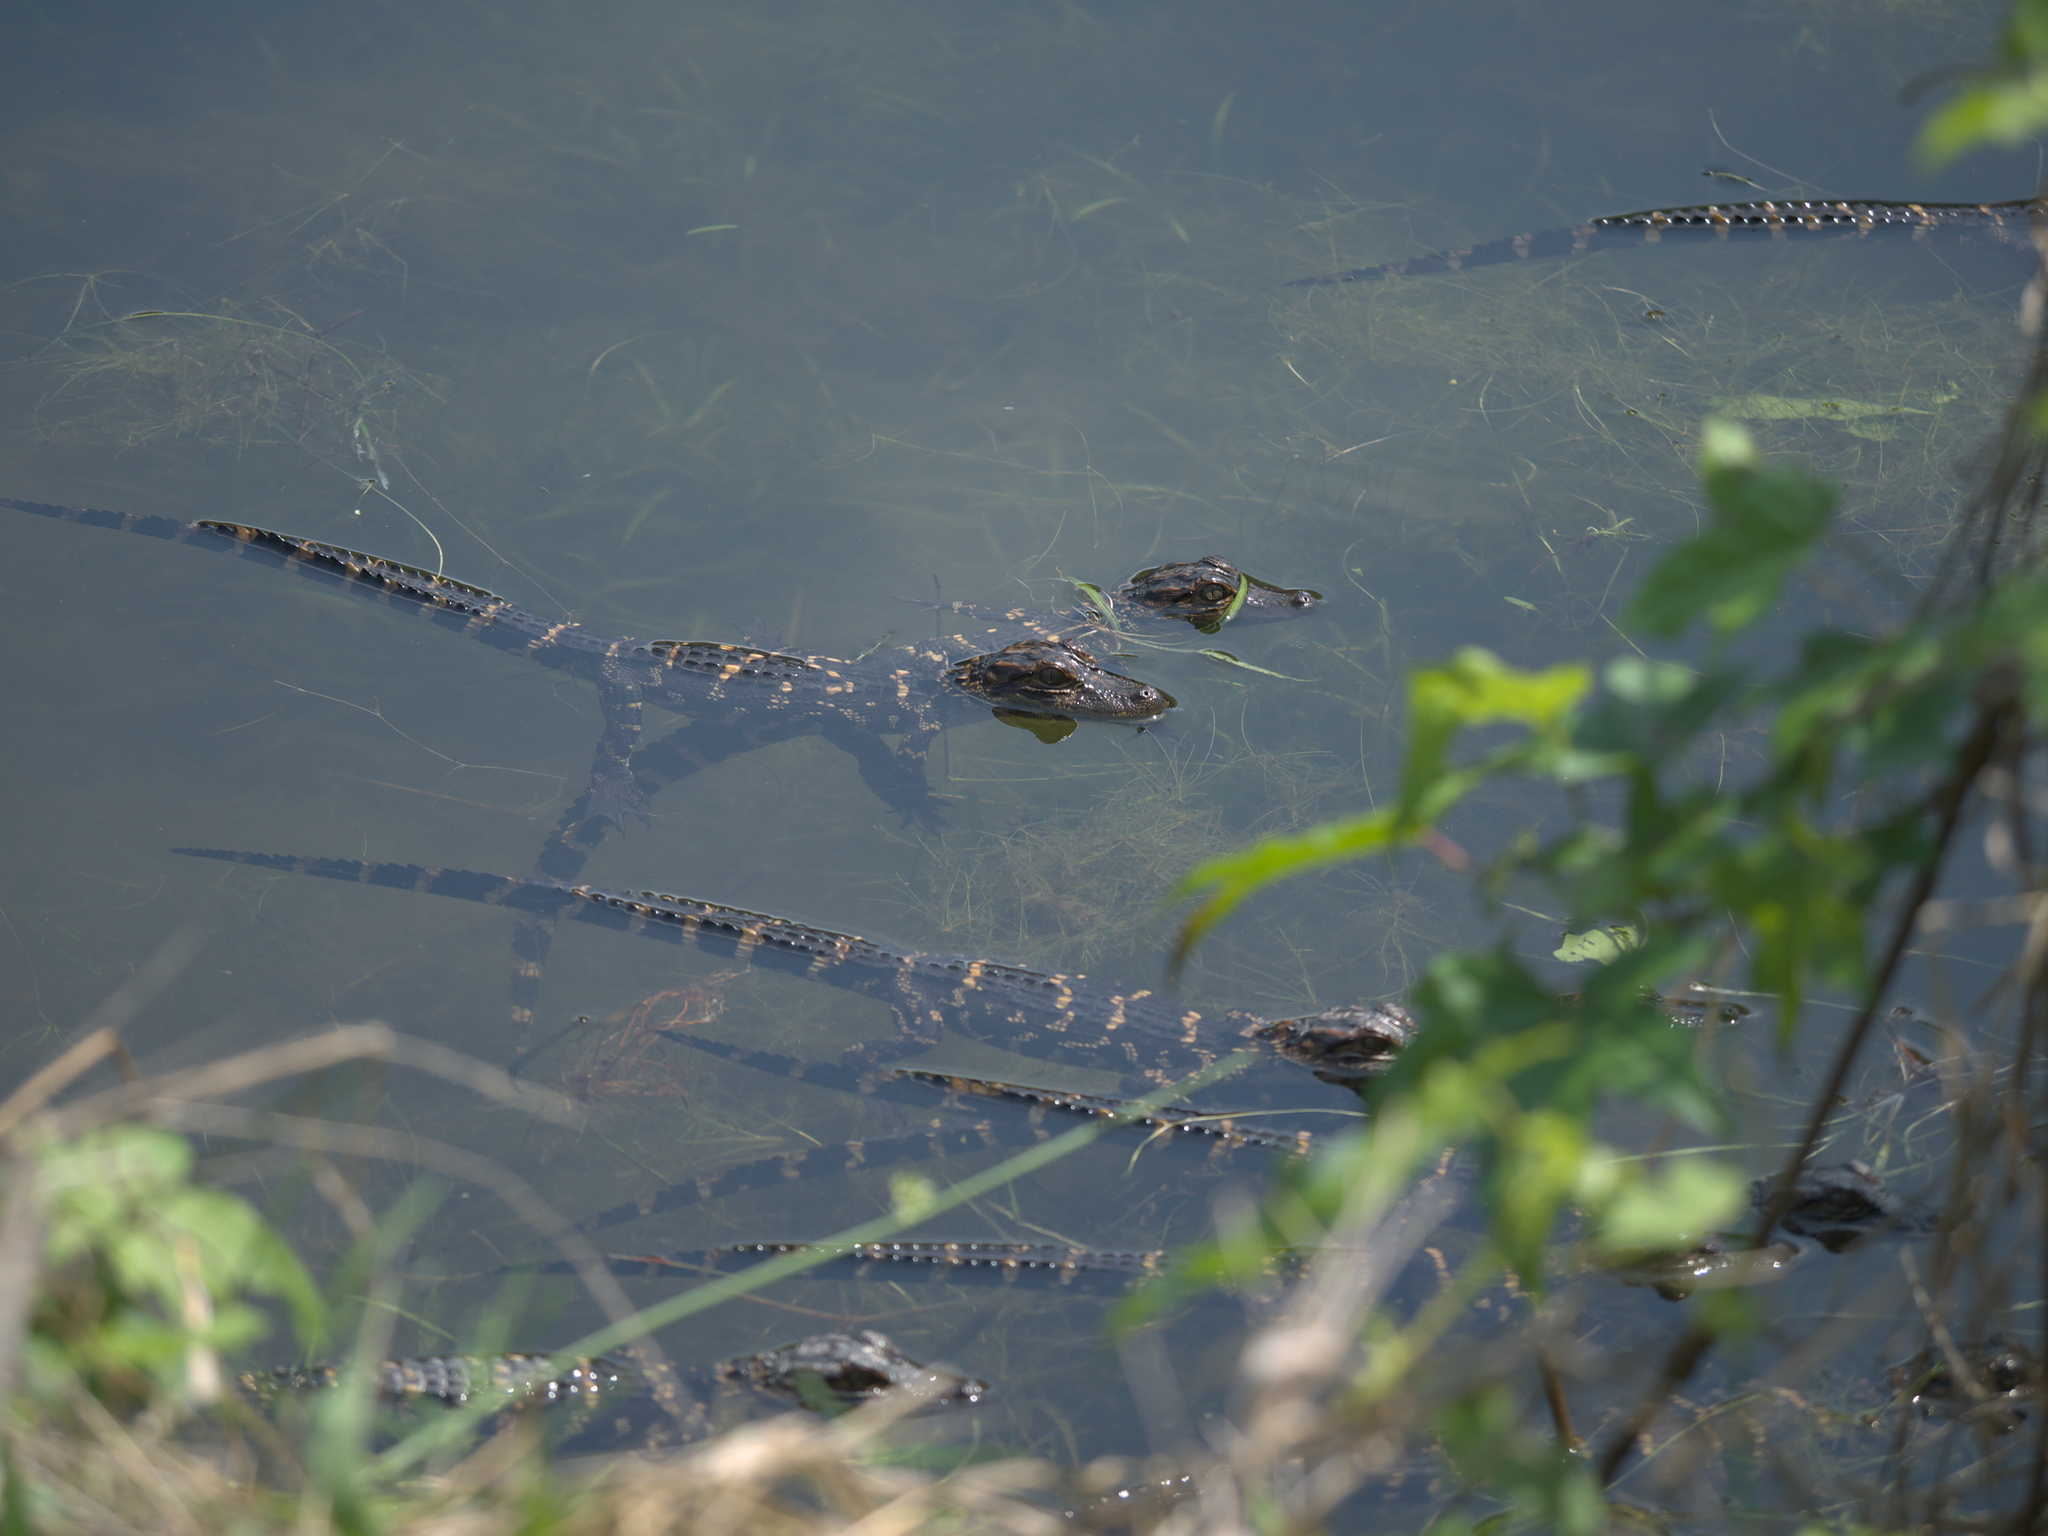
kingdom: Animalia
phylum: Chordata
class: Crocodylia
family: Alligatoridae
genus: Alligator
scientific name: Alligator mississippiensis
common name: American alligator
